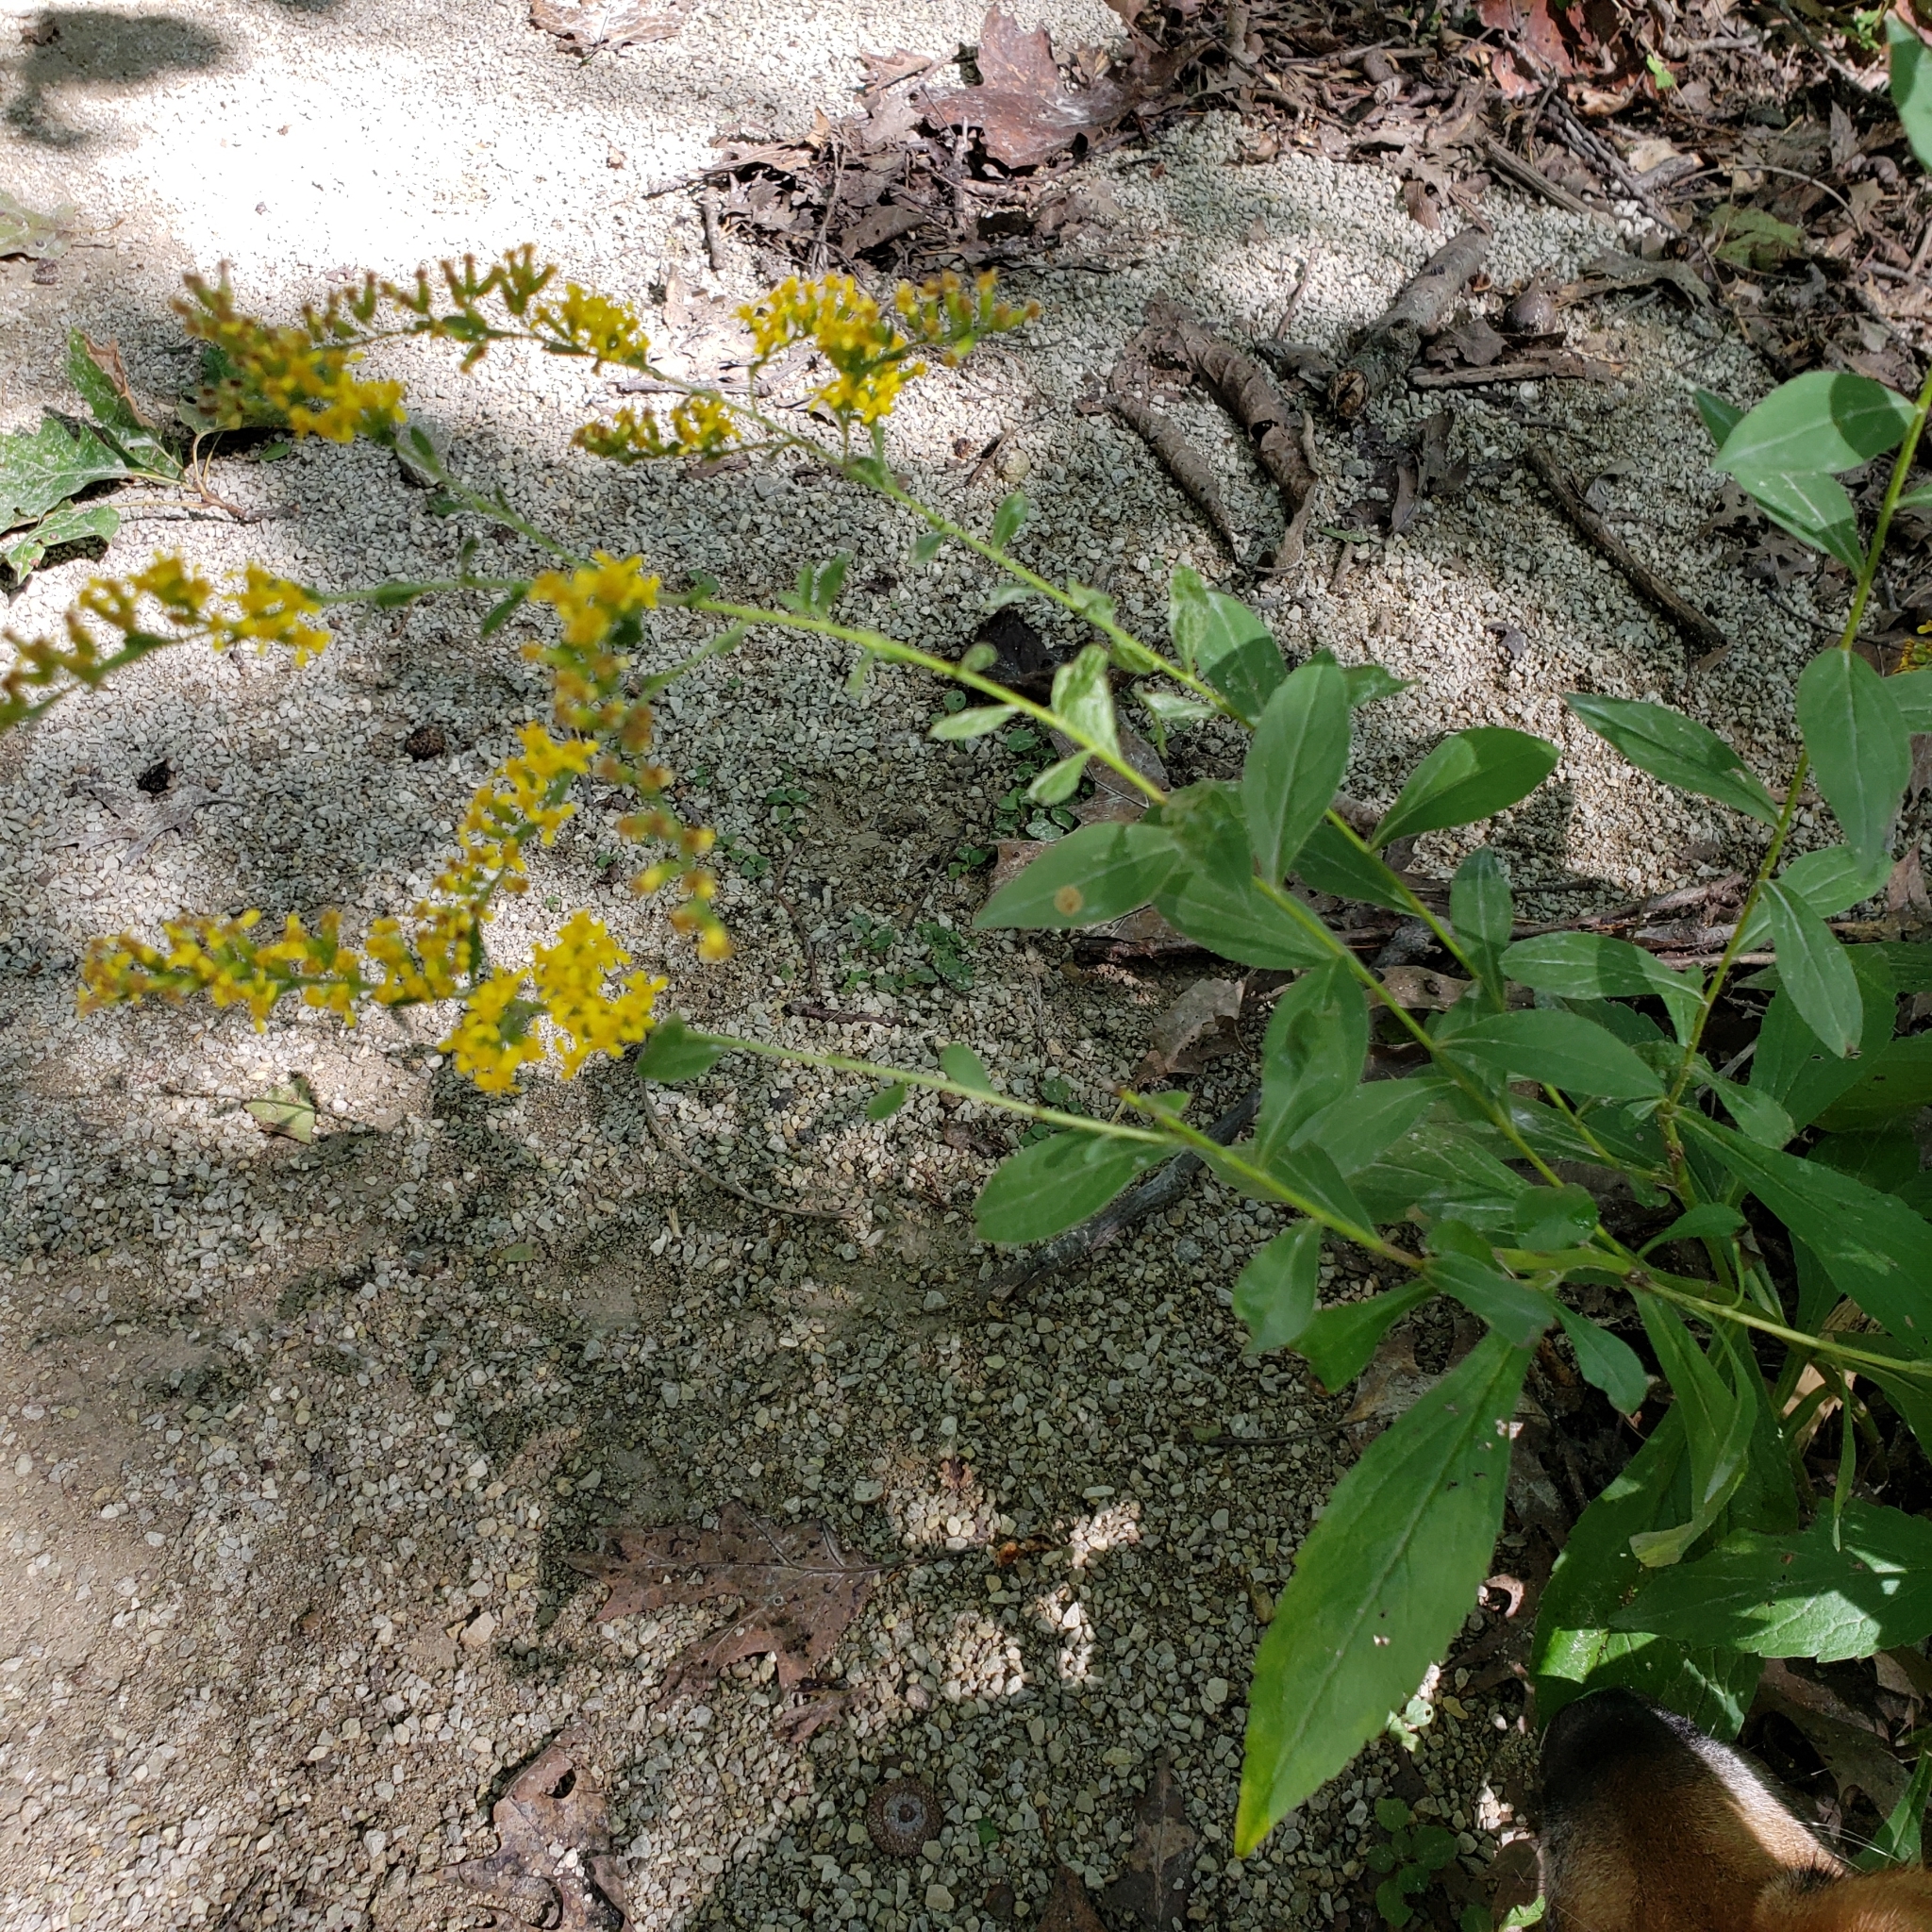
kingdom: Plantae
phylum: Tracheophyta
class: Magnoliopsida
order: Asterales
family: Asteraceae
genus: Solidago
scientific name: Solidago ulmifolia
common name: Elm-leaf goldenrod
